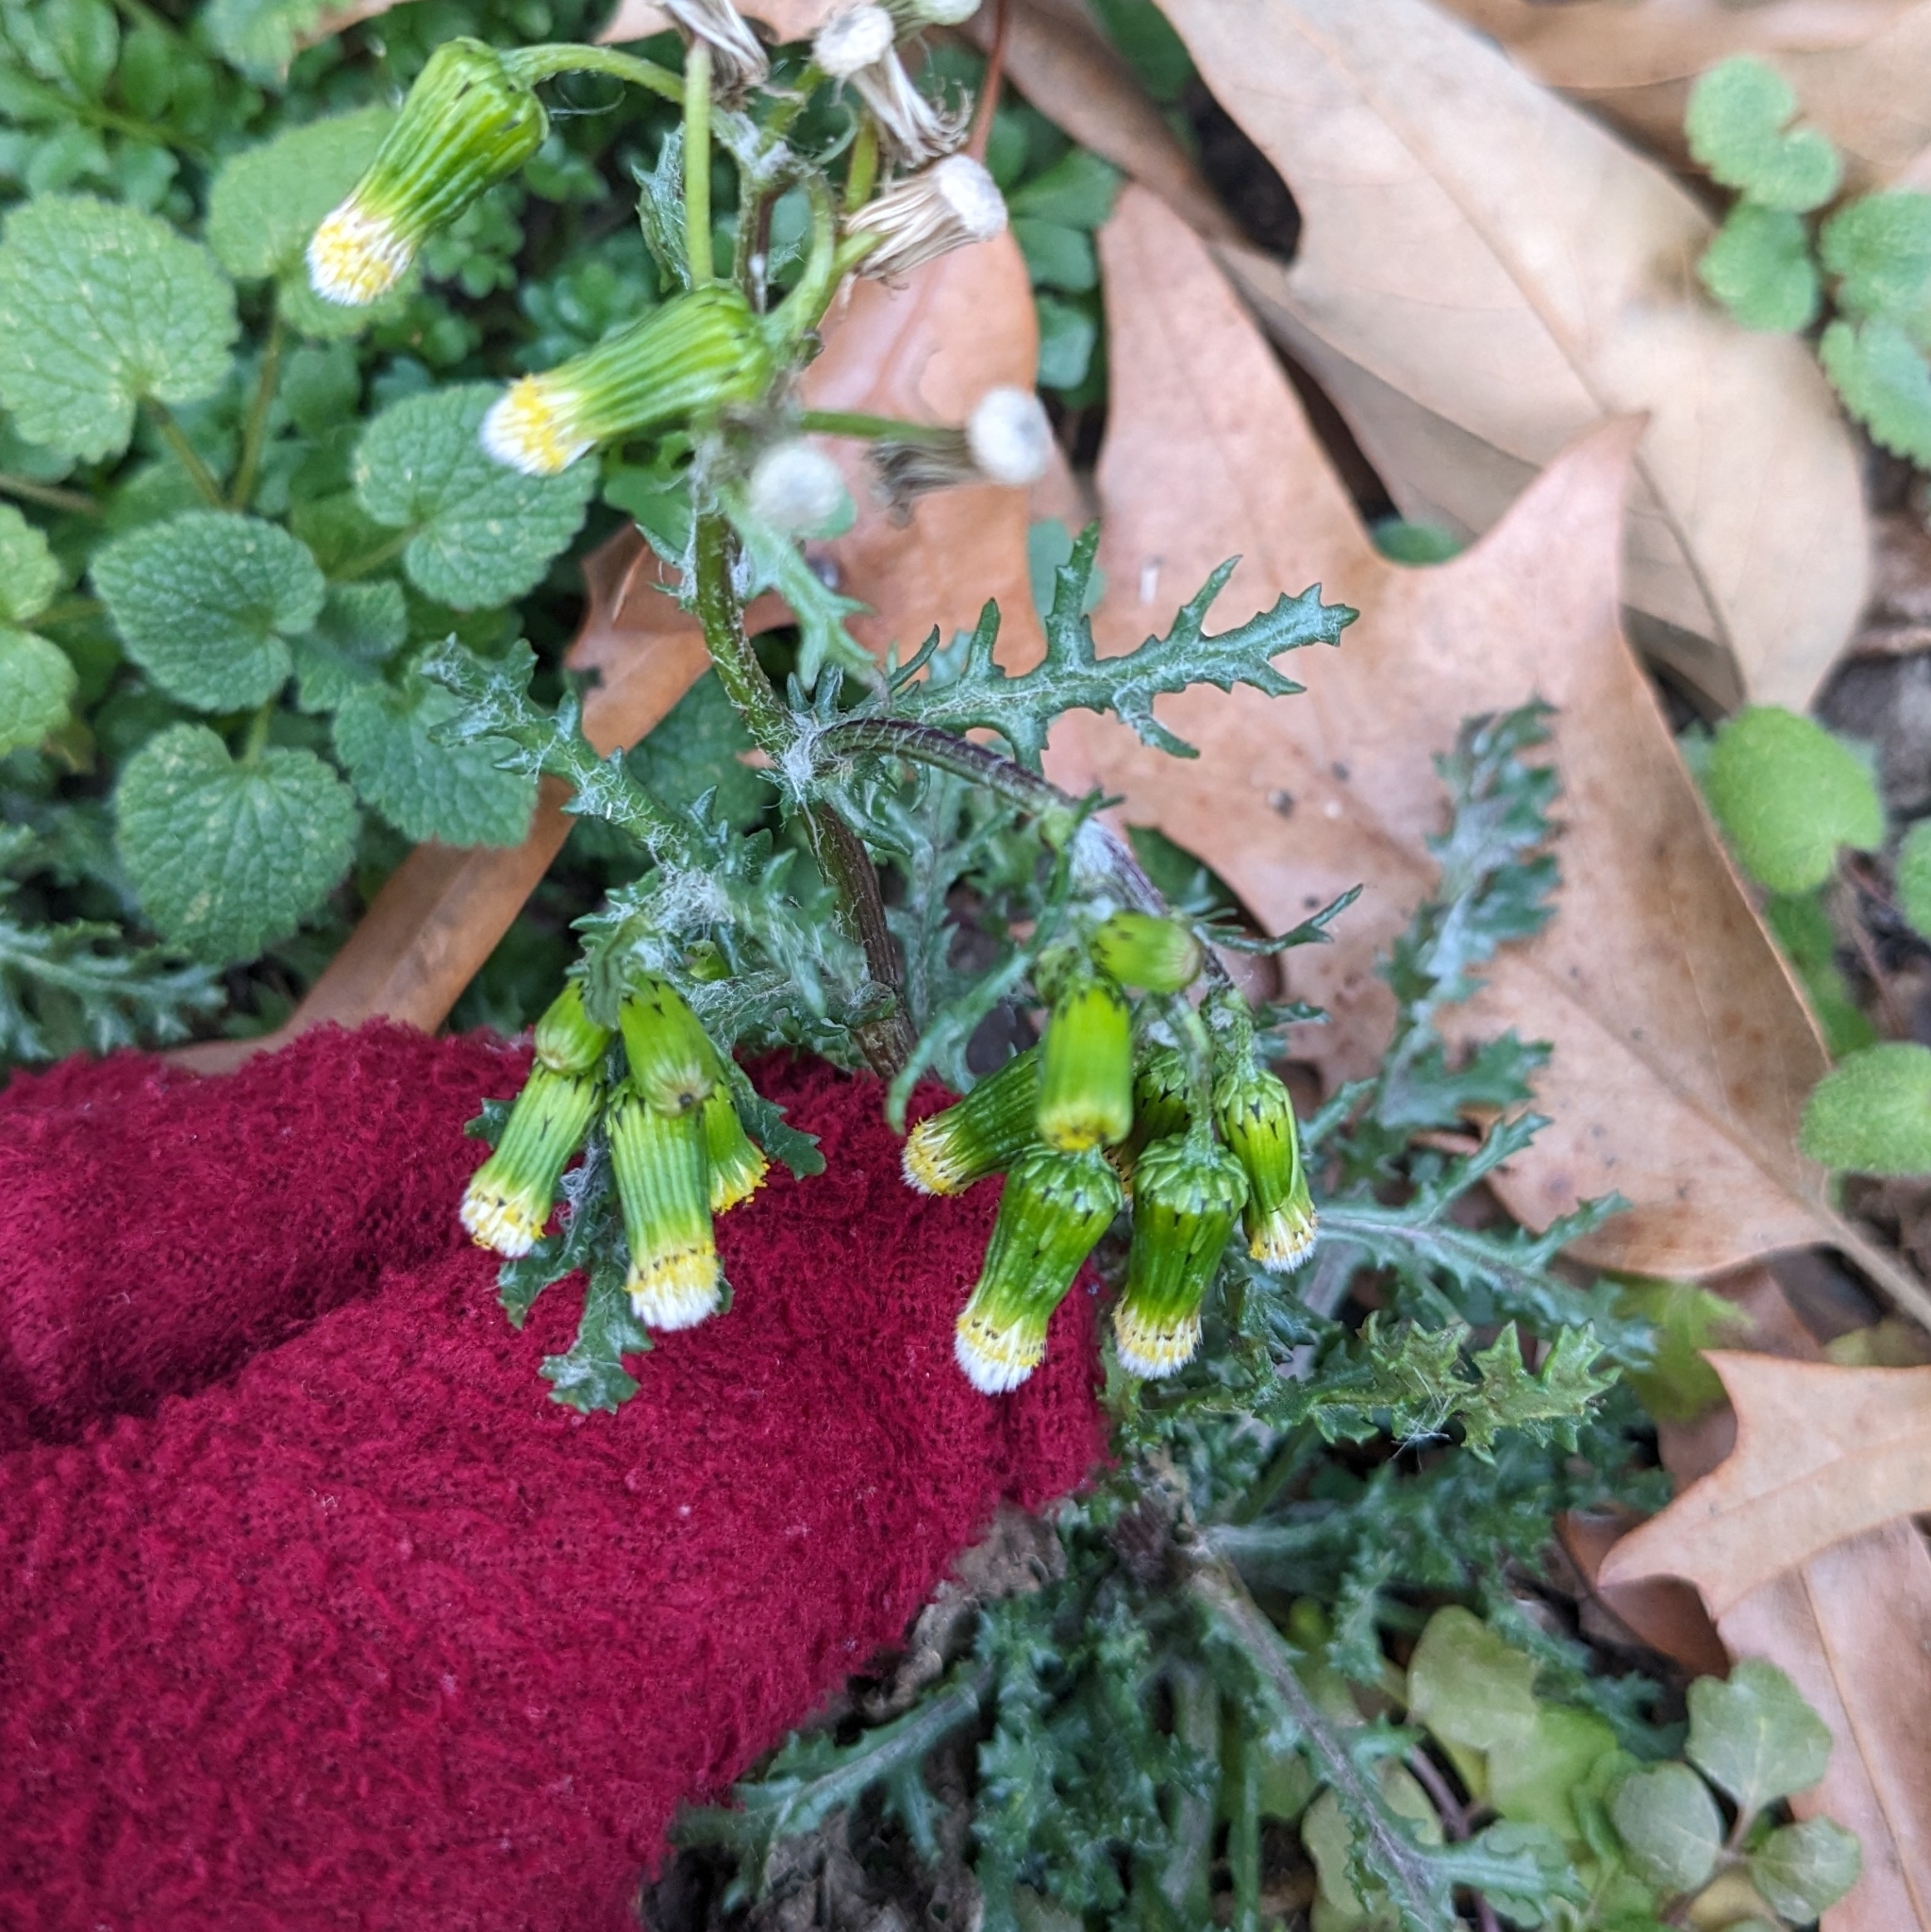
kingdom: Plantae
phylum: Tracheophyta
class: Magnoliopsida
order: Asterales
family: Asteraceae
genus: Senecio
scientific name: Senecio vulgaris
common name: Old-man-in-the-spring
